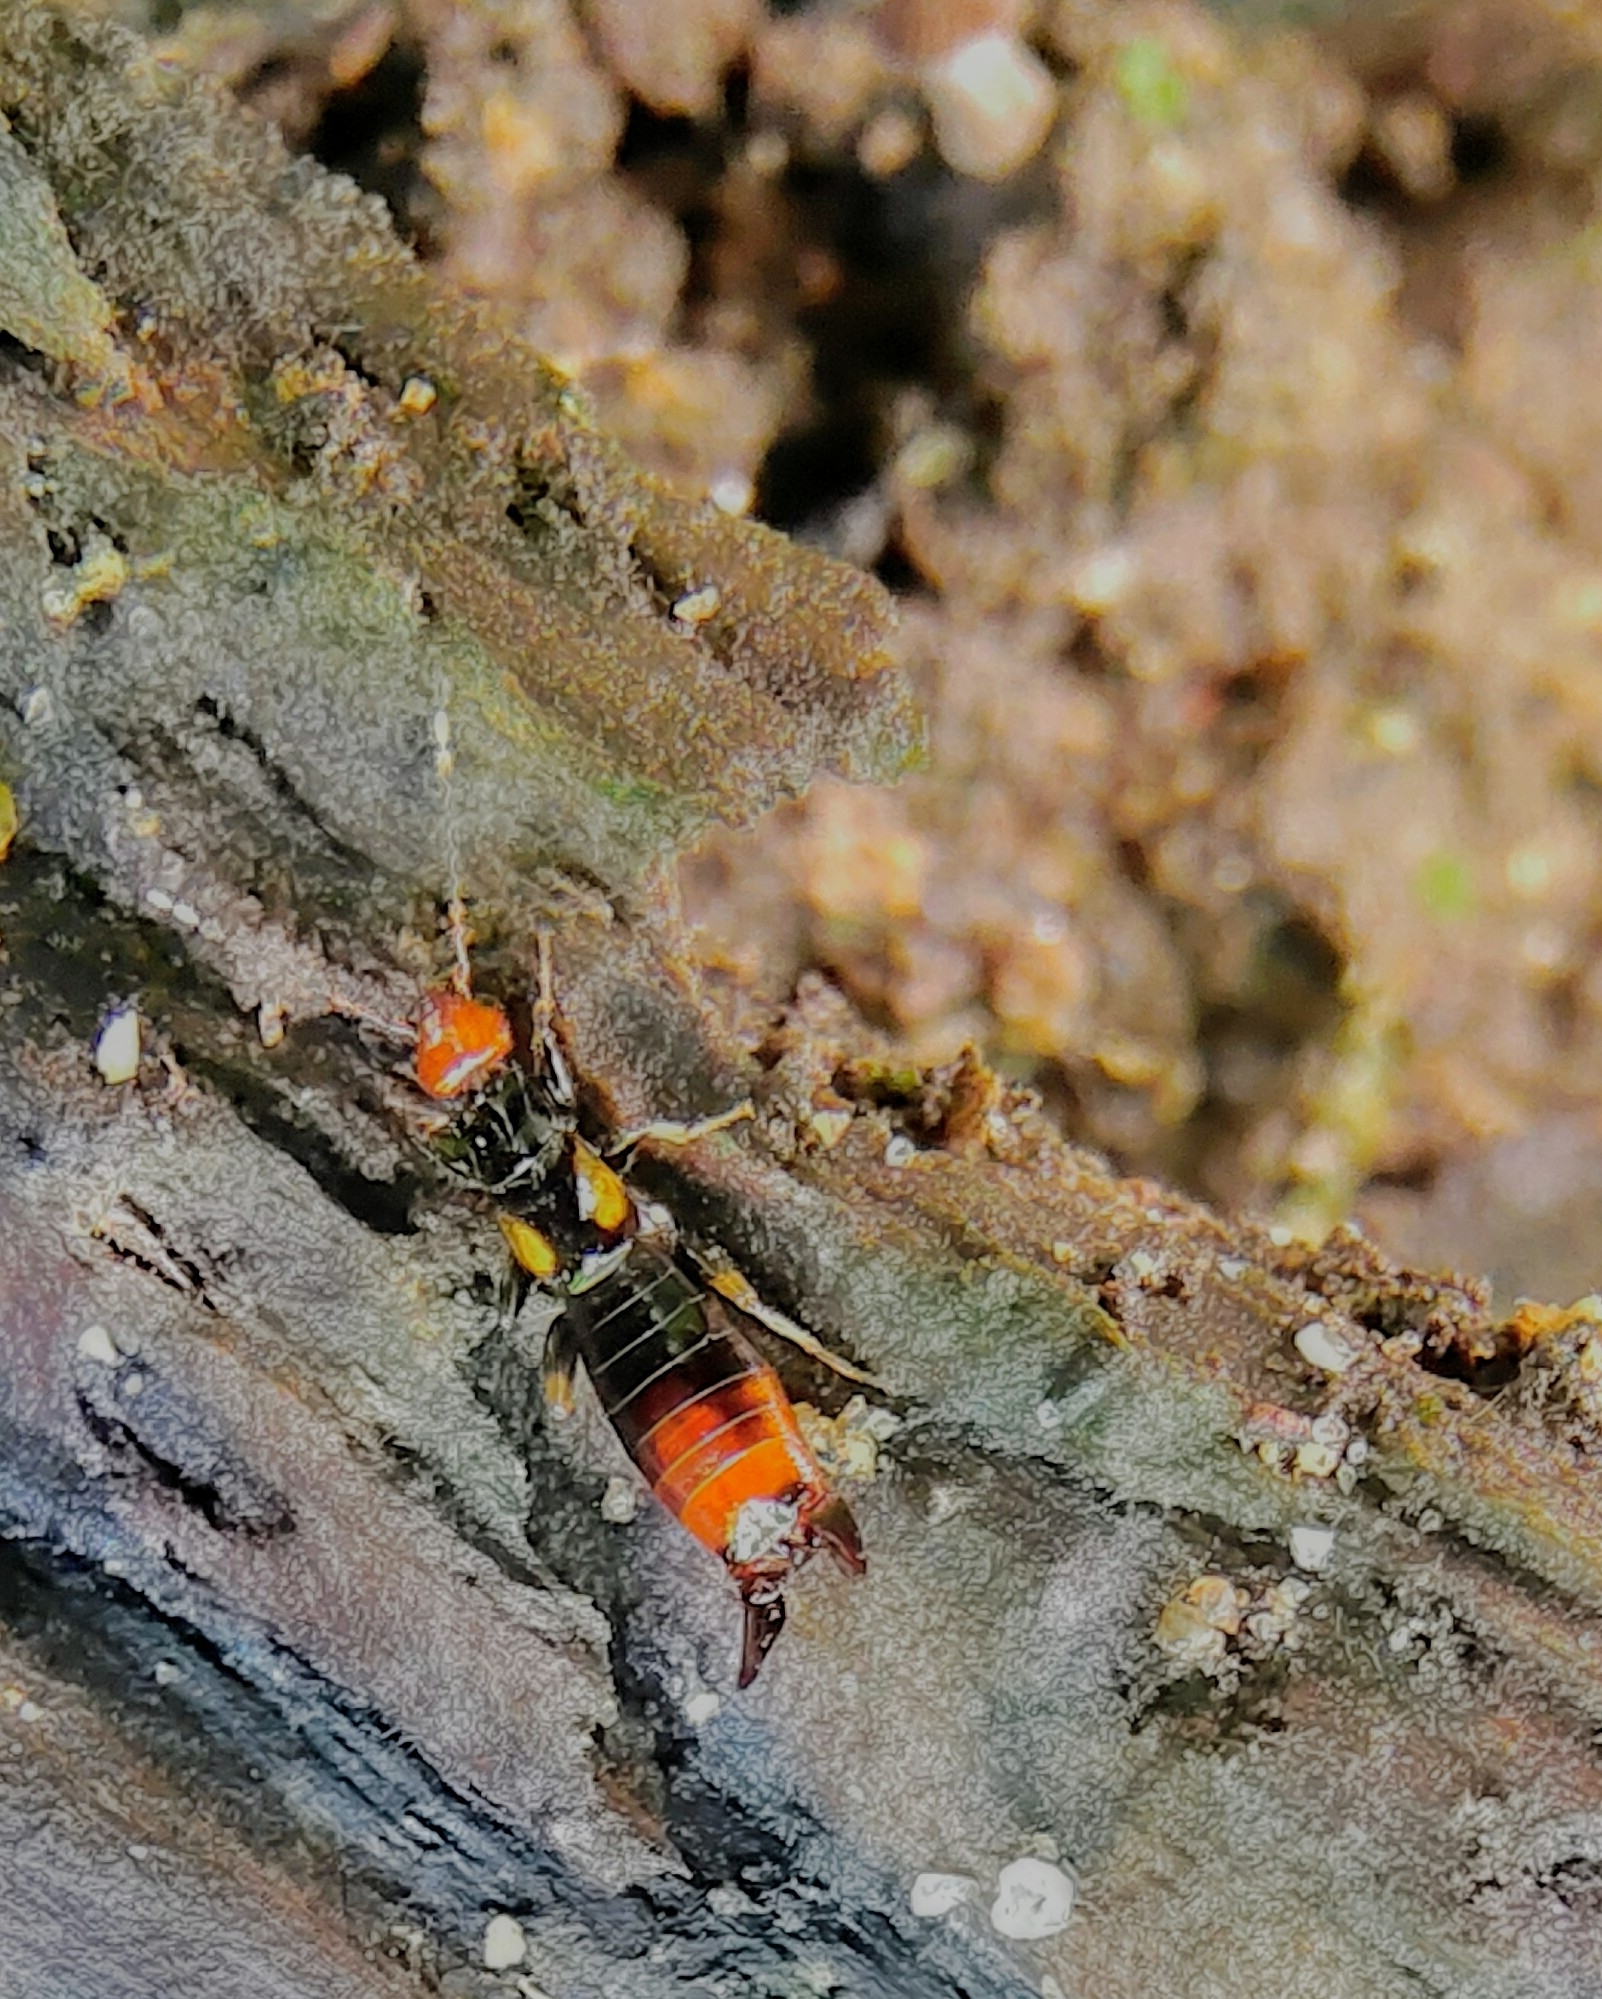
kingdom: Animalia
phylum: Arthropoda
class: Insecta
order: Dermaptera
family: Spongiphoridae
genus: Nesogaster
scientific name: Nesogaster amoenus
